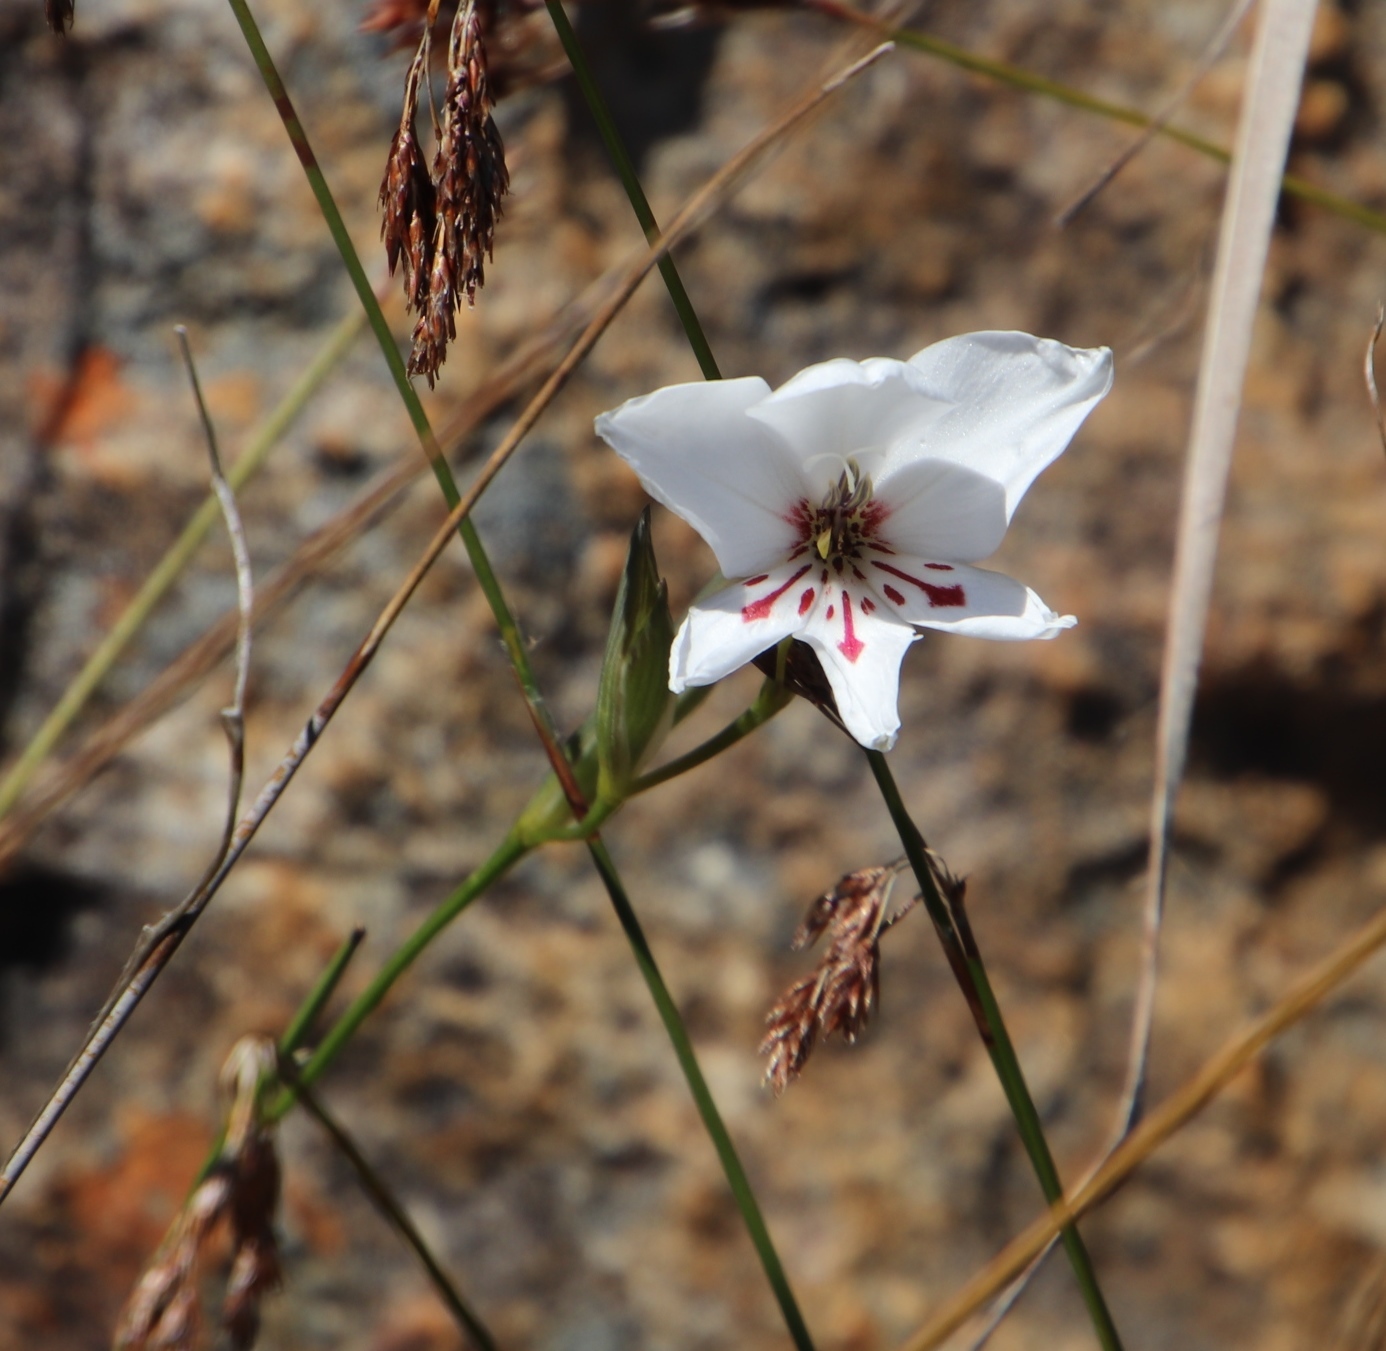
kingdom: Plantae
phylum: Tracheophyta
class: Liliopsida
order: Asparagales
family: Iridaceae
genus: Gladiolus
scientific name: Gladiolus debilis
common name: Painted-lady
